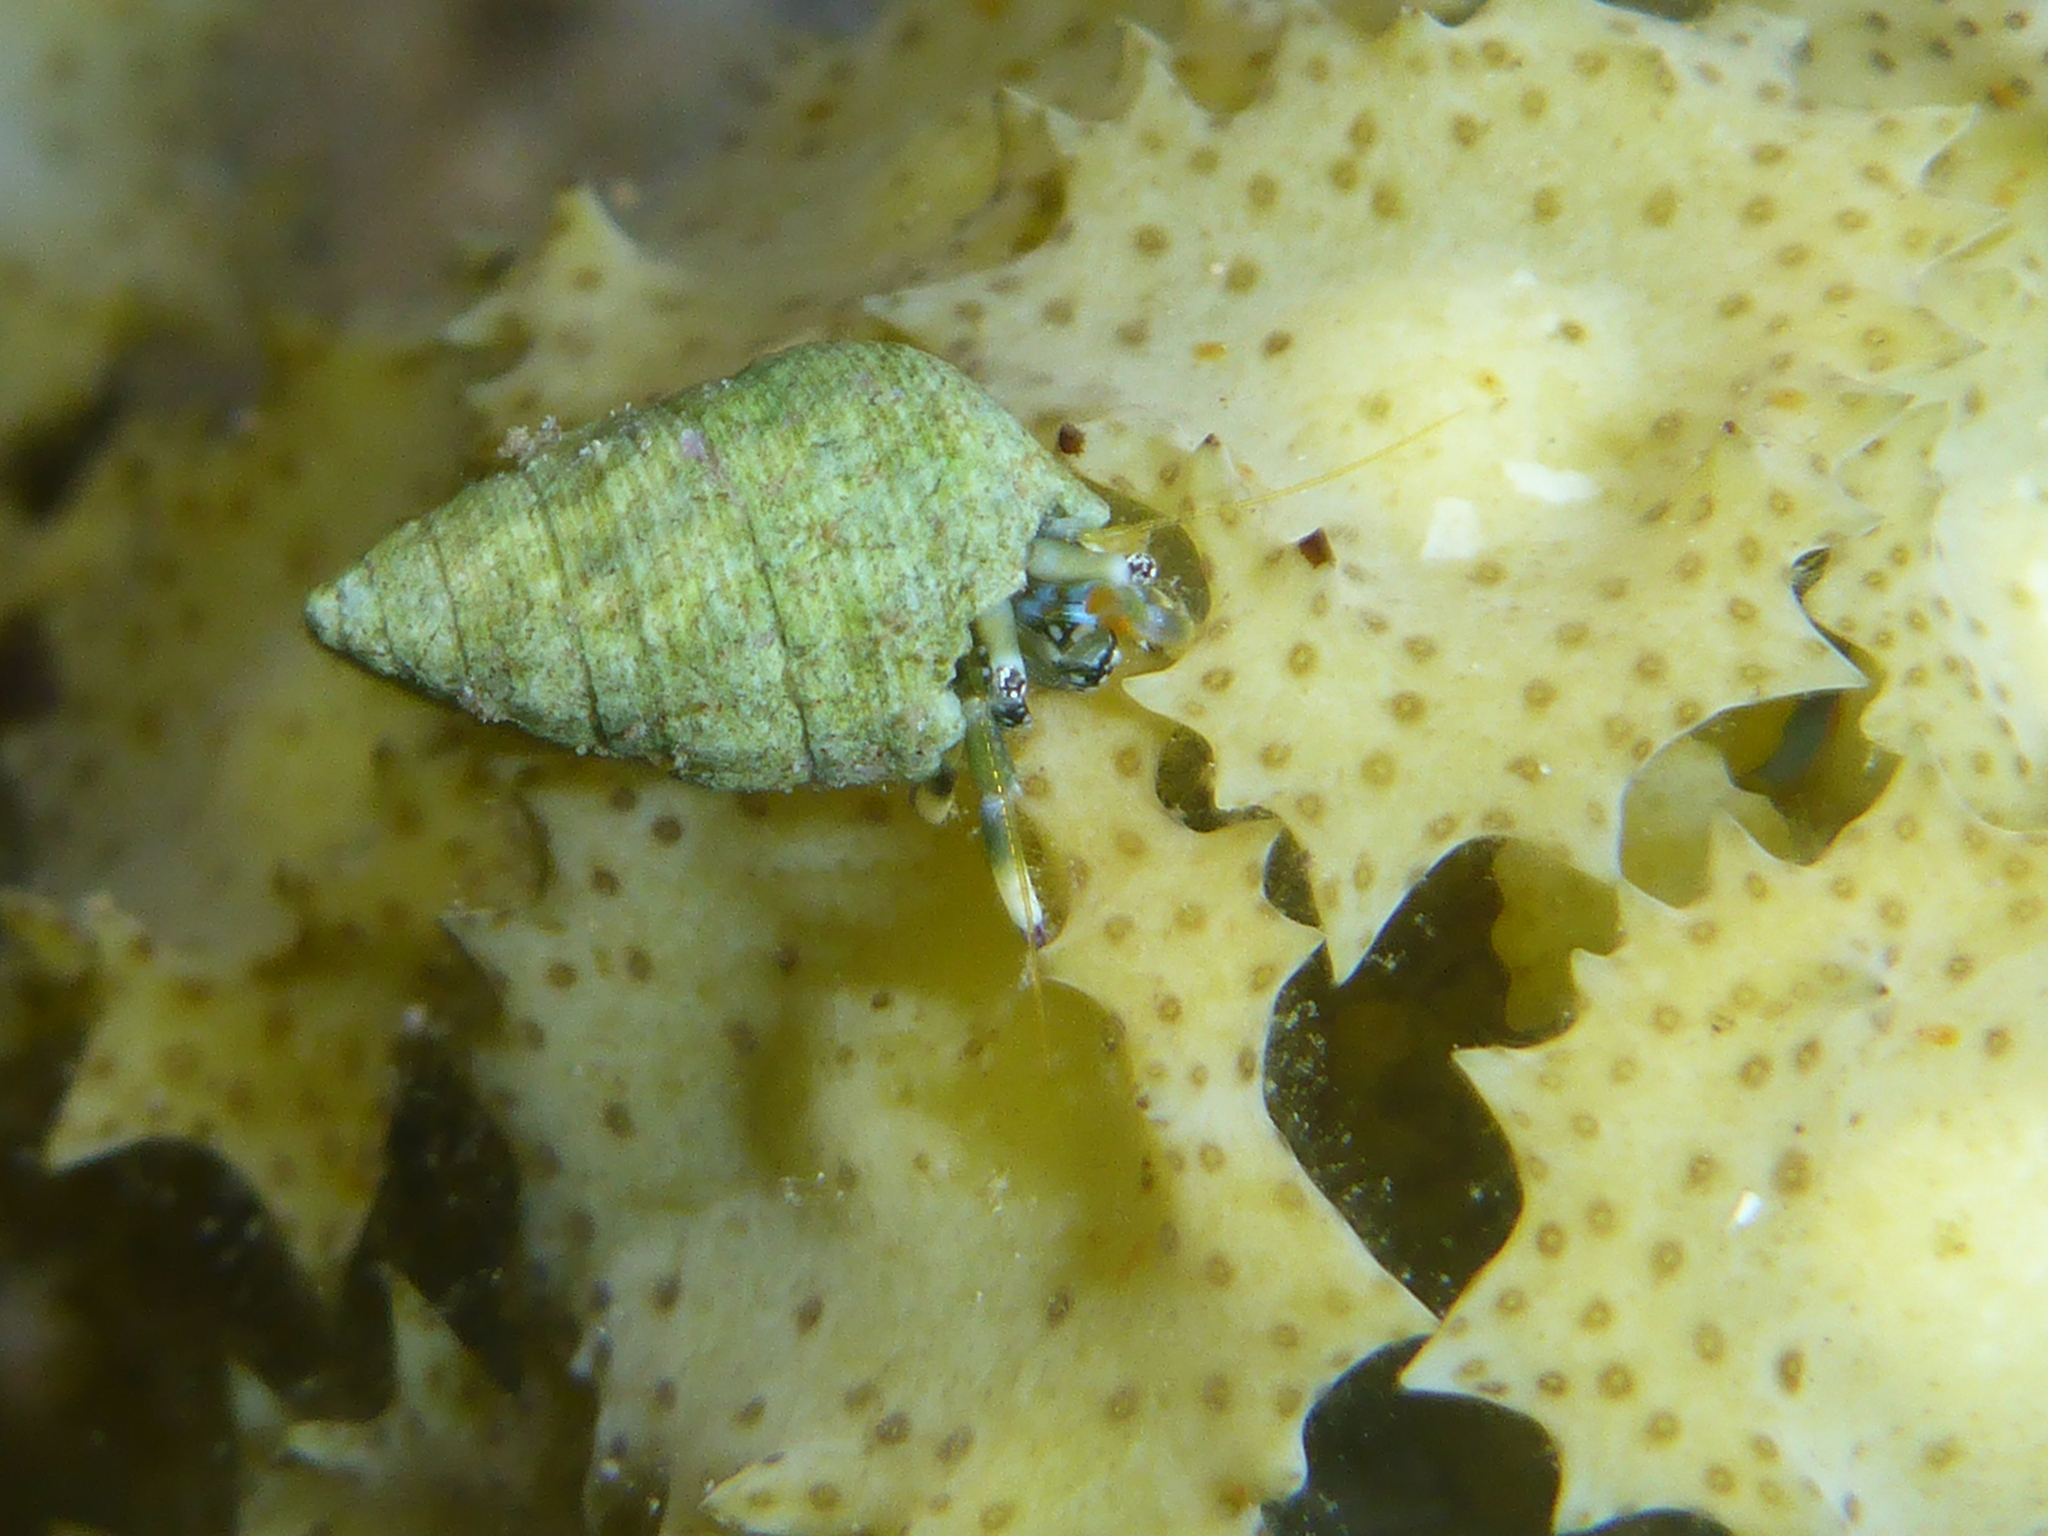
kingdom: Animalia
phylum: Arthropoda
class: Malacostraca
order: Decapoda
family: Diogenidae
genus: Calcinus
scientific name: Calcinus latens
